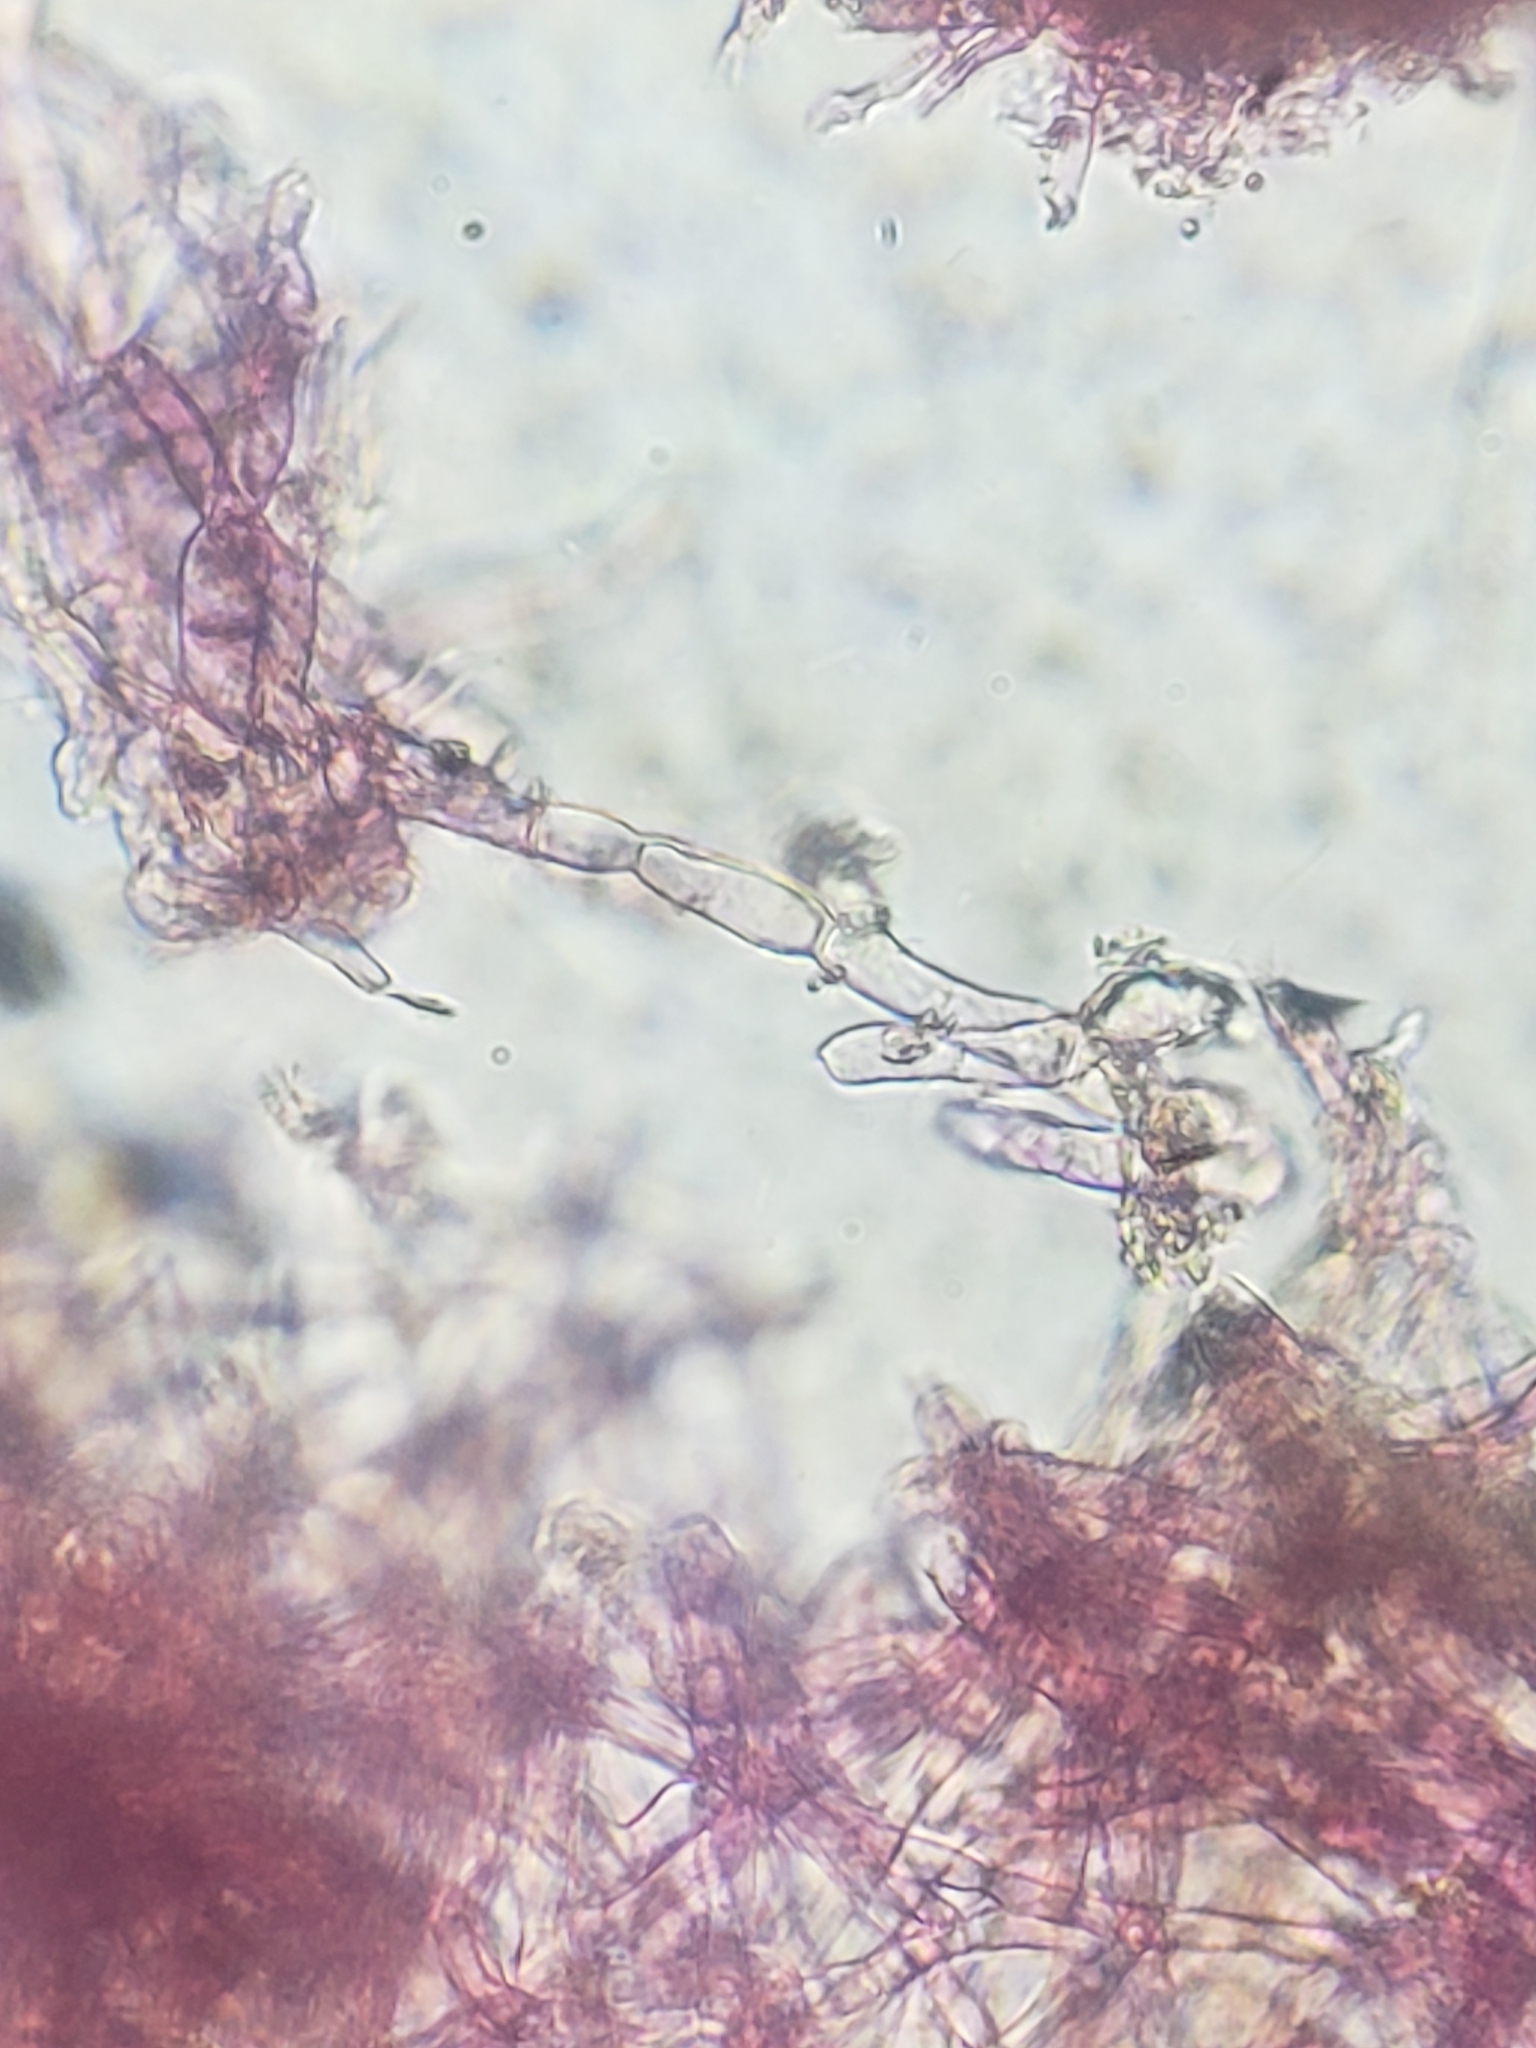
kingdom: Fungi
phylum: Ascomycota
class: Sordariomycetes
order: Hypocreales
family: Hypocreaceae
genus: Hypomyces
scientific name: Hypomyces rosellus
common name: Pink polypore mould
